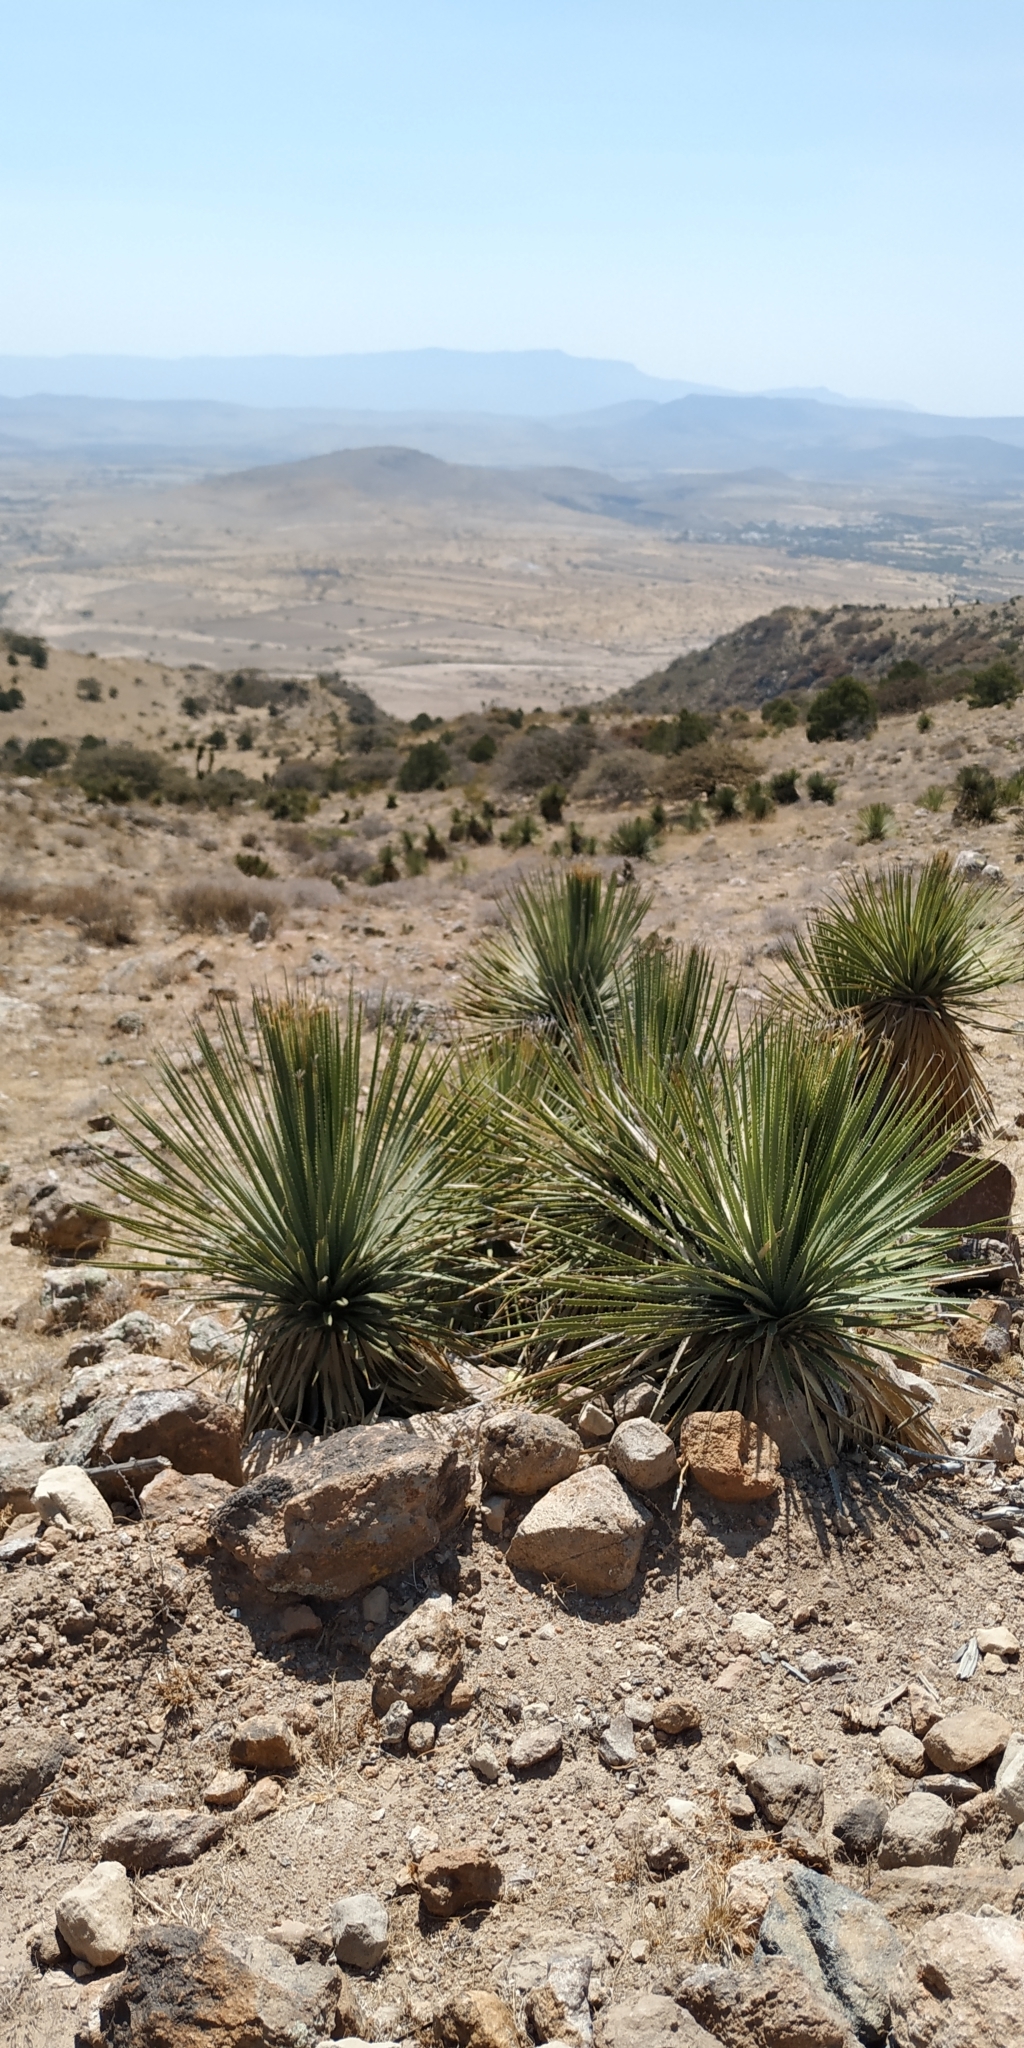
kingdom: Plantae
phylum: Tracheophyta
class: Liliopsida
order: Asparagales
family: Asparagaceae
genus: Dasylirion
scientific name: Dasylirion acrotrichum
